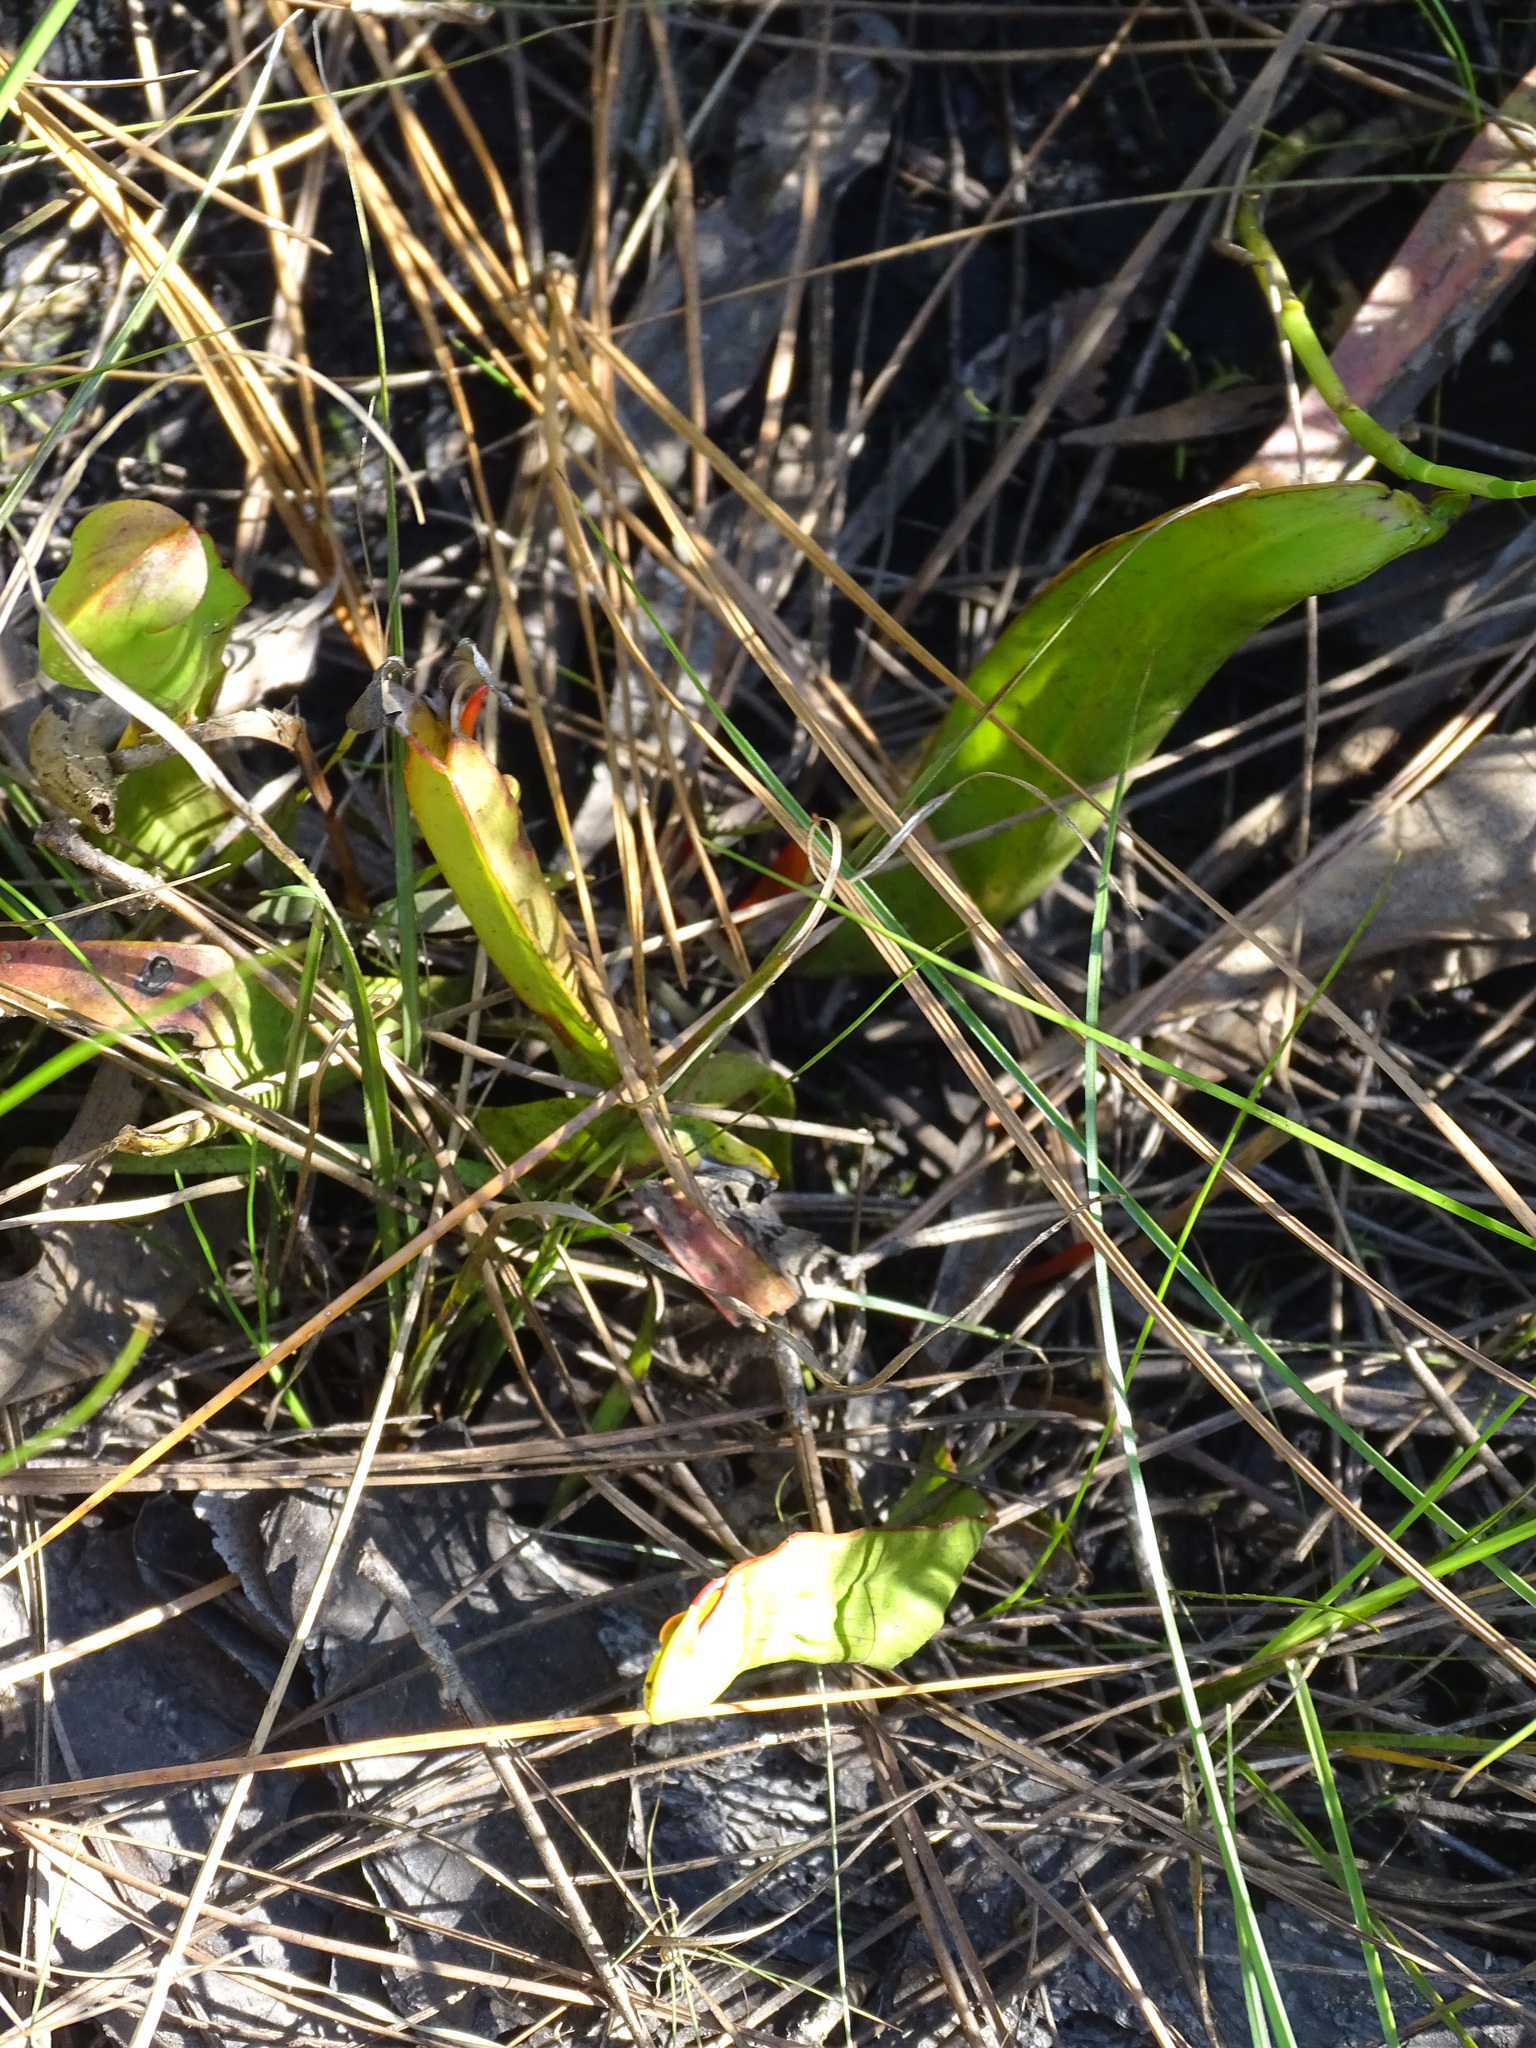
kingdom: Plantae
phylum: Tracheophyta
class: Magnoliopsida
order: Ericales
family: Sarraceniaceae
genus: Sarracenia
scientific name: Sarracenia minor
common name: Rainhat-trumpet
